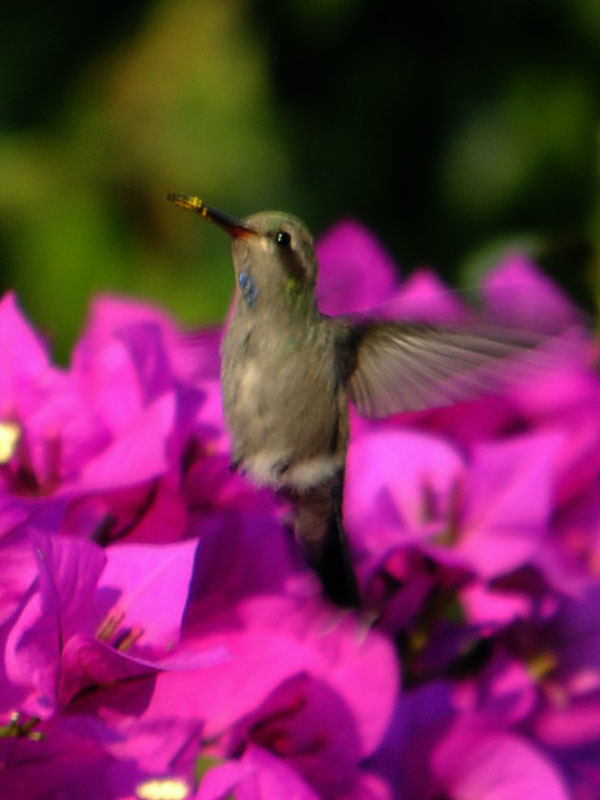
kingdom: Animalia
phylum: Chordata
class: Aves
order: Apodiformes
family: Trochilidae
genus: Cynanthus
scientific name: Cynanthus latirostris
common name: Broad-billed hummingbird
